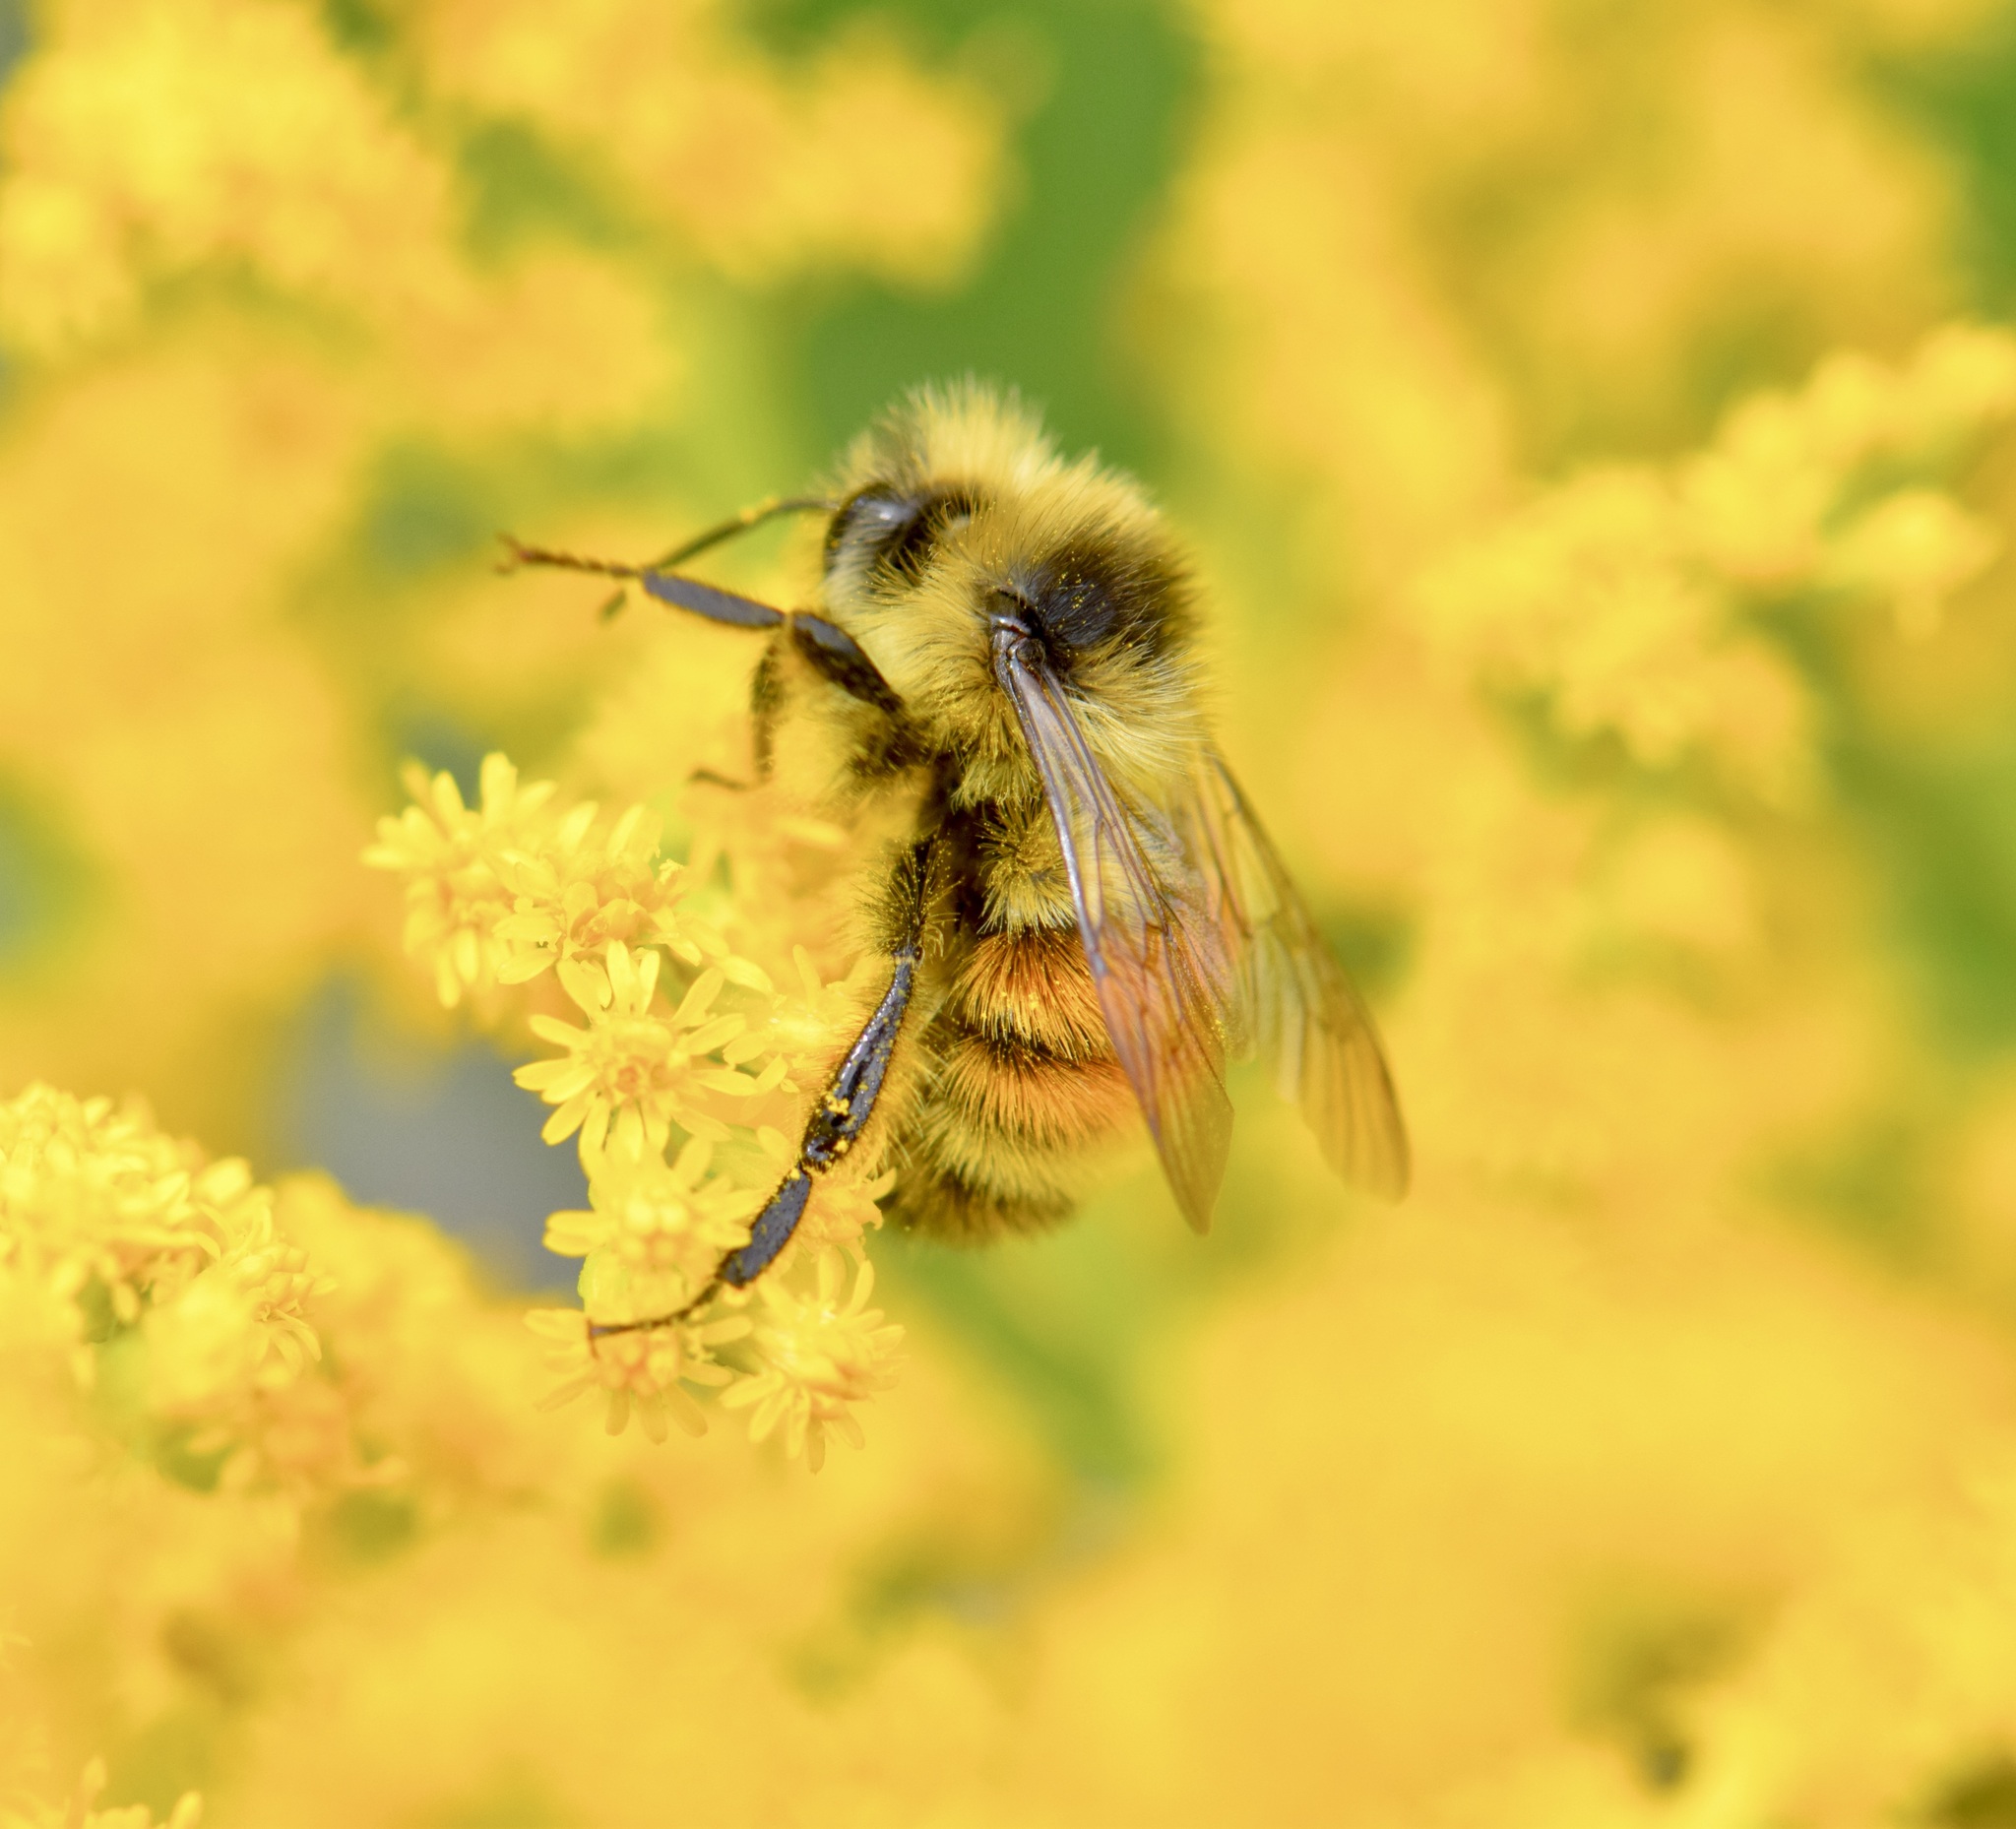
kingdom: Animalia
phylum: Arthropoda
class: Insecta
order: Hymenoptera
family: Apidae
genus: Bombus
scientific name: Bombus ternarius
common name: Tri-colored bumble bee
